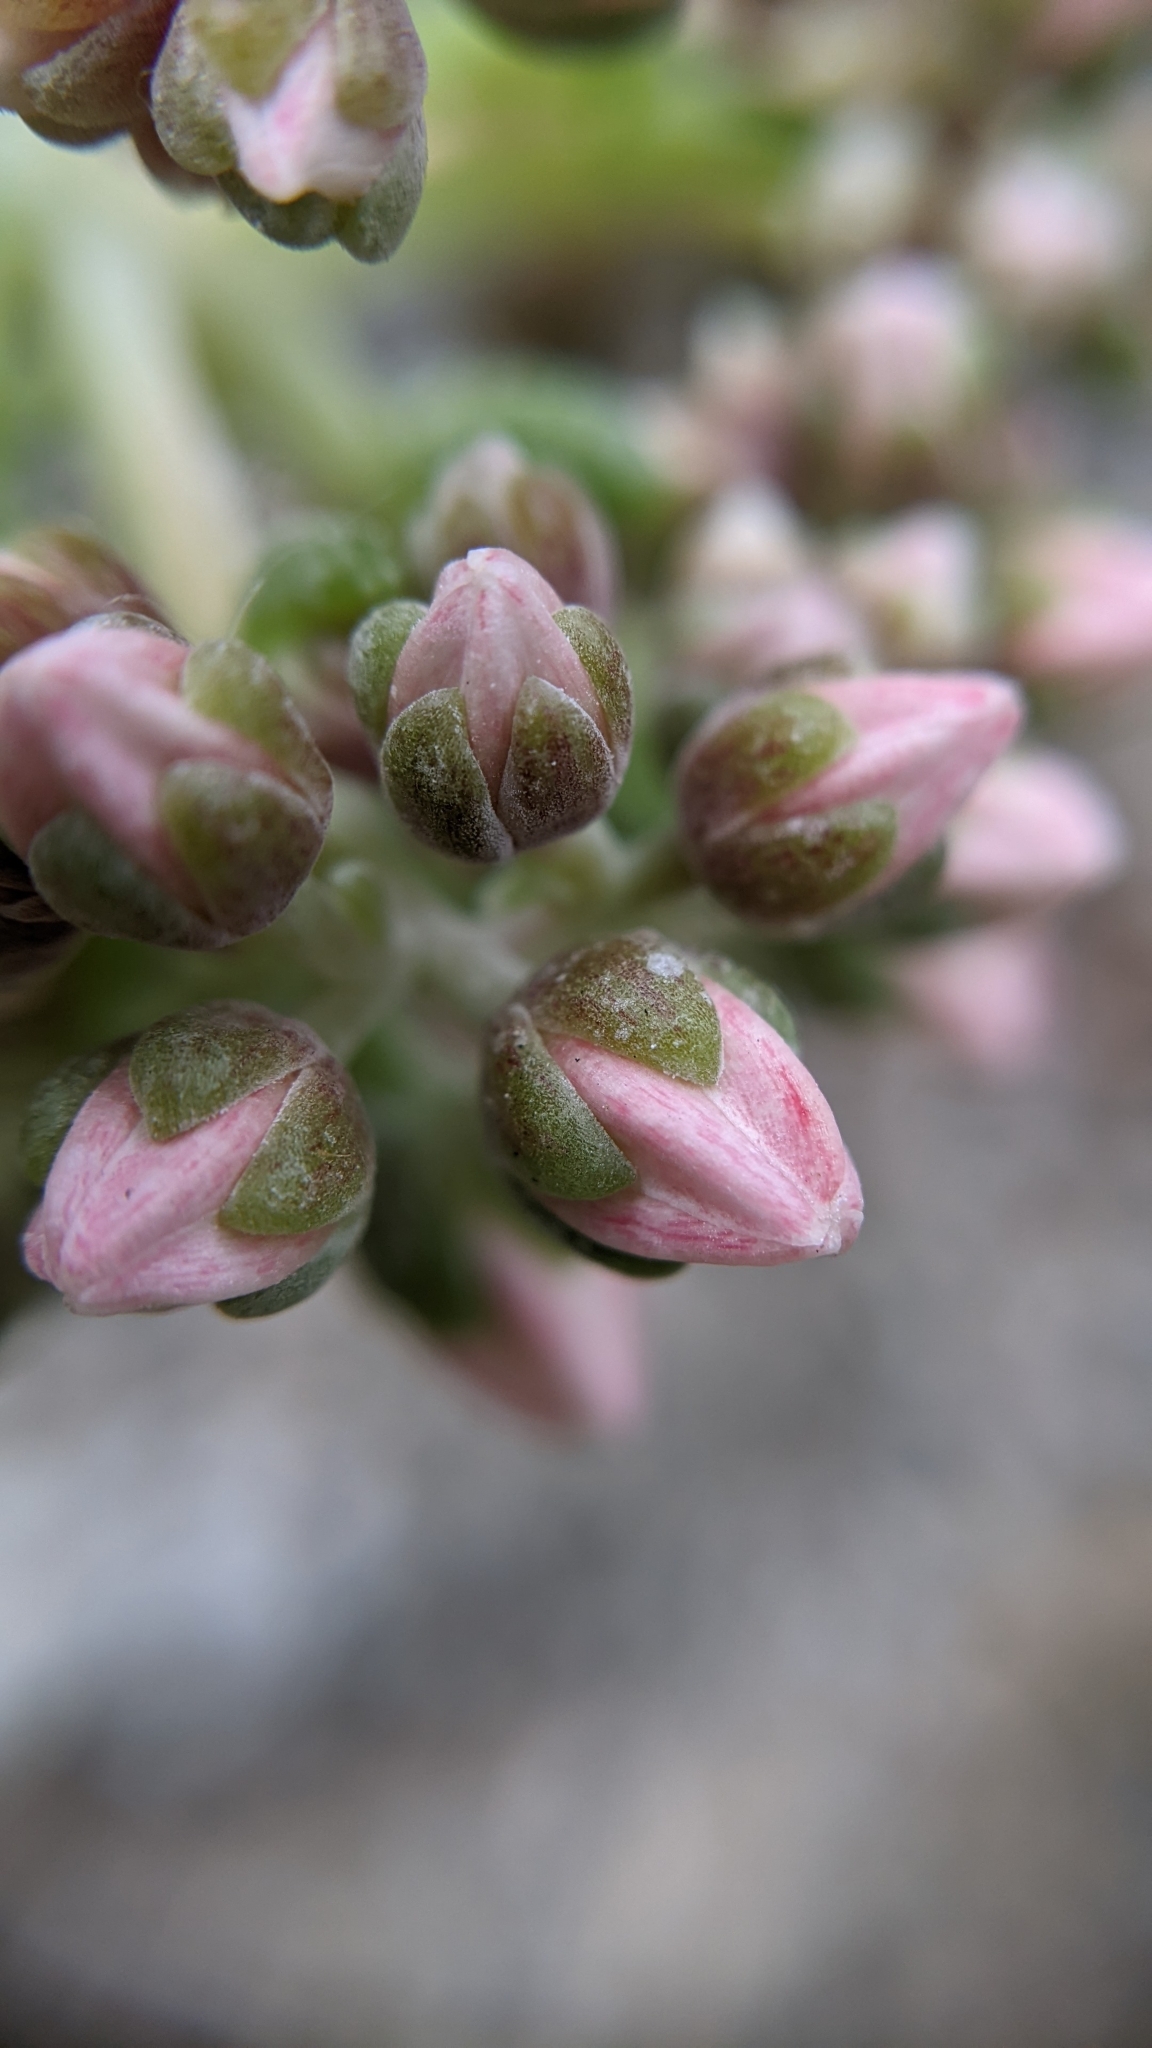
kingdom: Plantae
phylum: Tracheophyta
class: Magnoliopsida
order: Saxifragales
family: Crassulaceae
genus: Dudleya
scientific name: Dudleya densiflora
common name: San gabriel mountains dudleya
